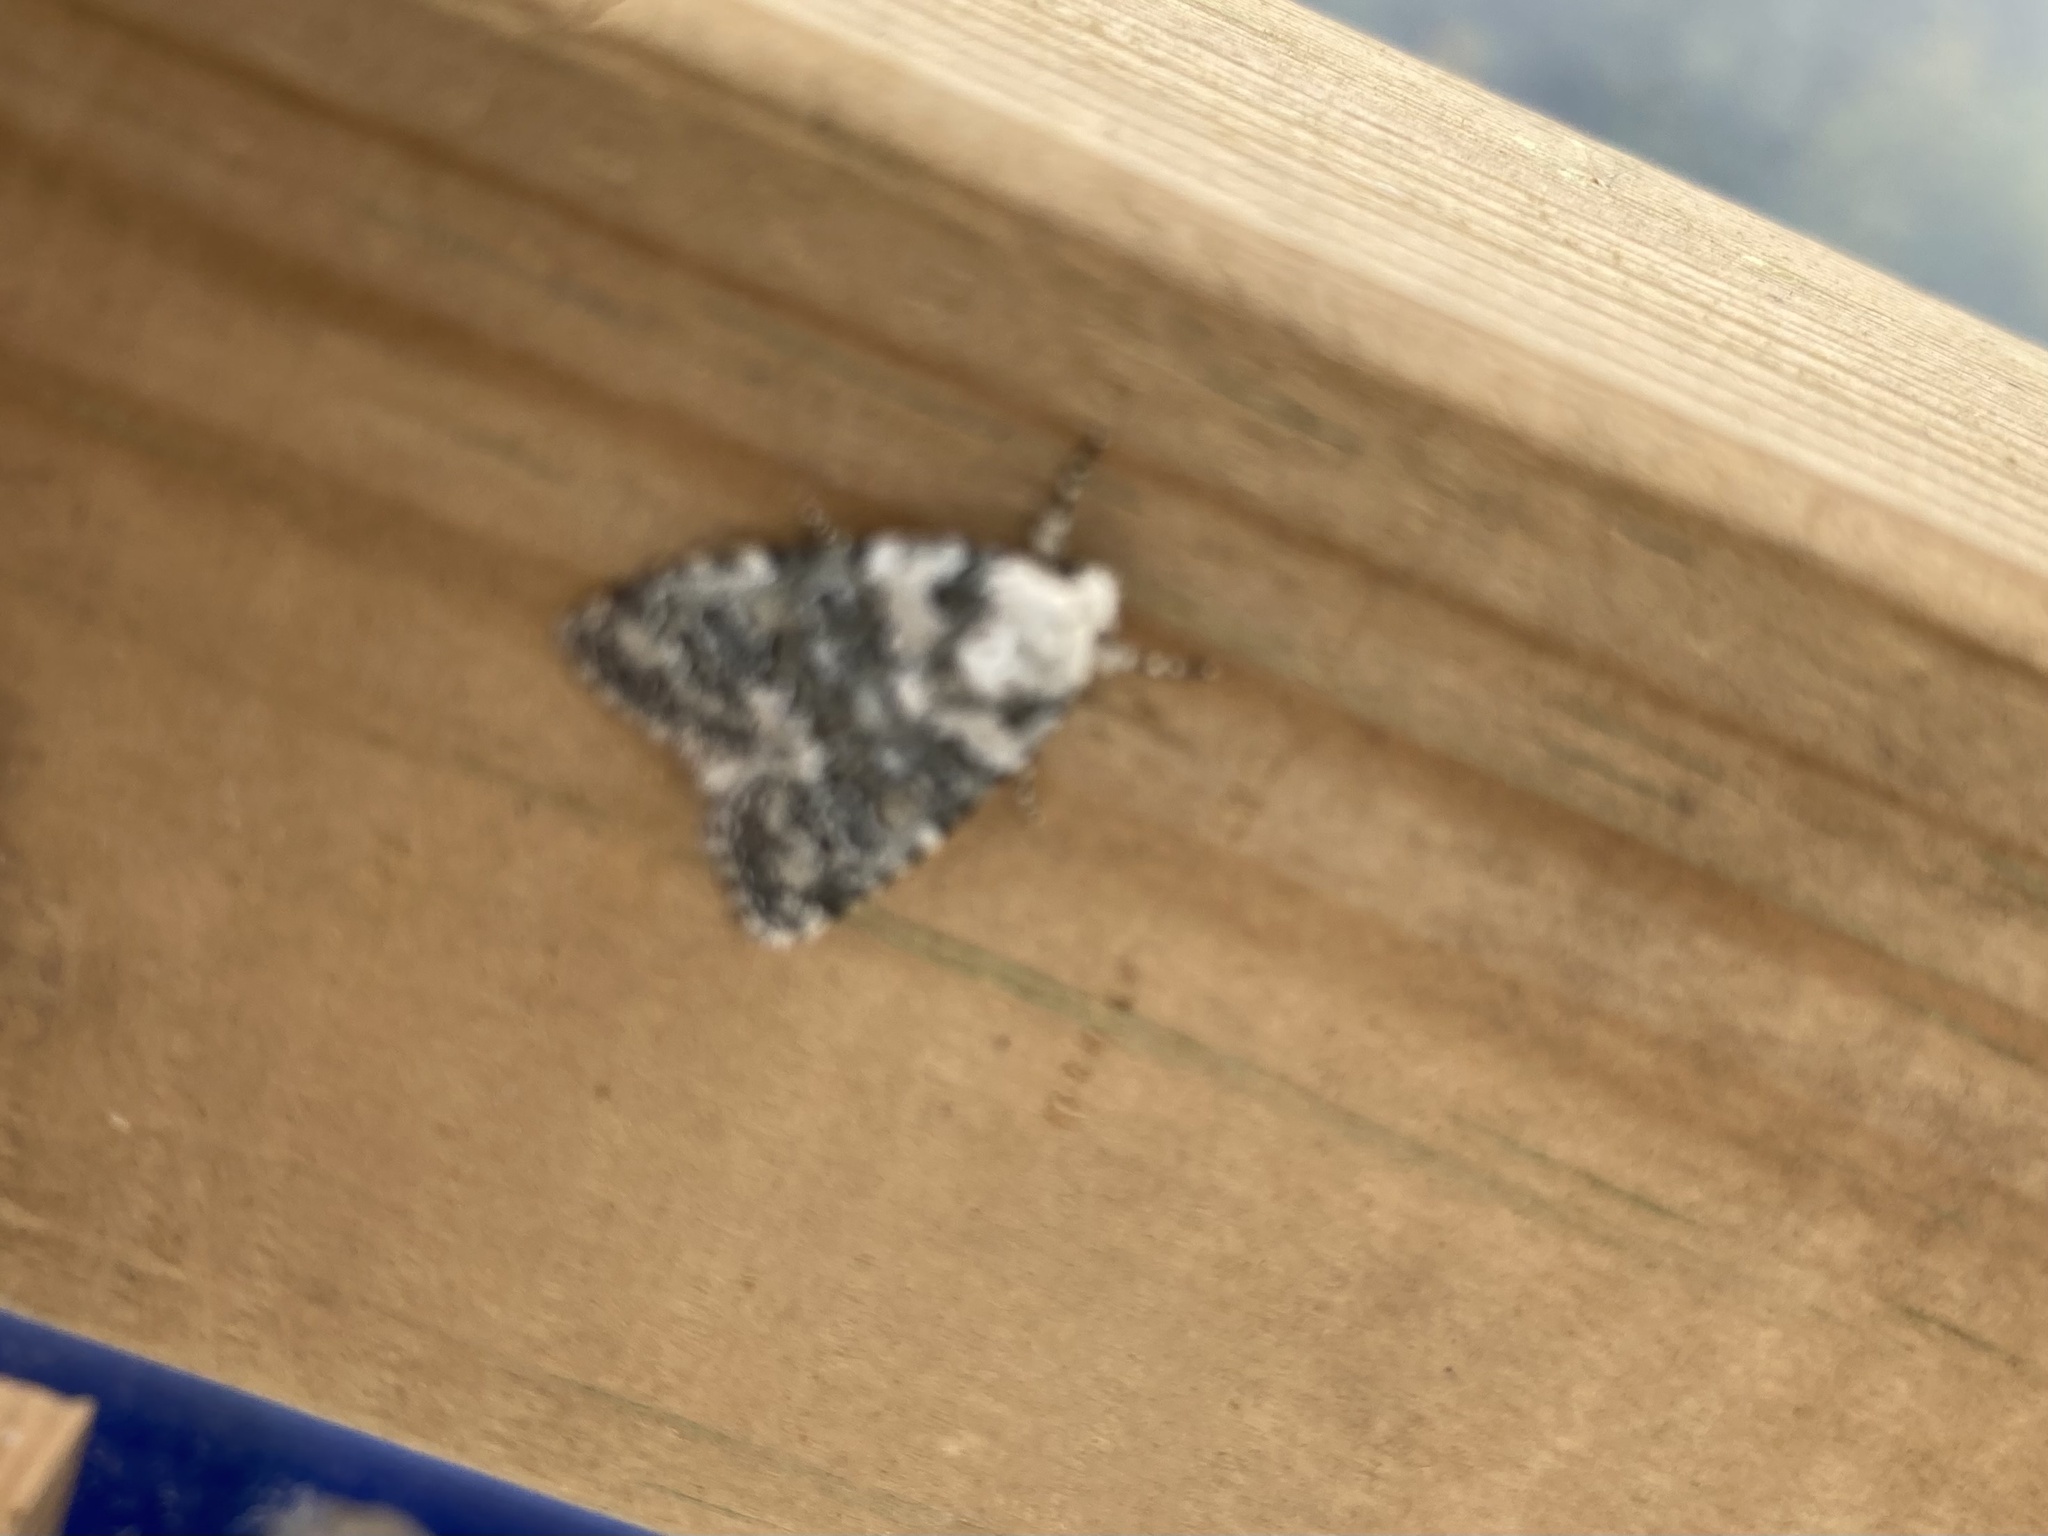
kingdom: Animalia
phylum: Arthropoda
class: Insecta
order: Lepidoptera
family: Noctuidae
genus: Bryophila
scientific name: Bryophila domestica
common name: Marbled beauty
